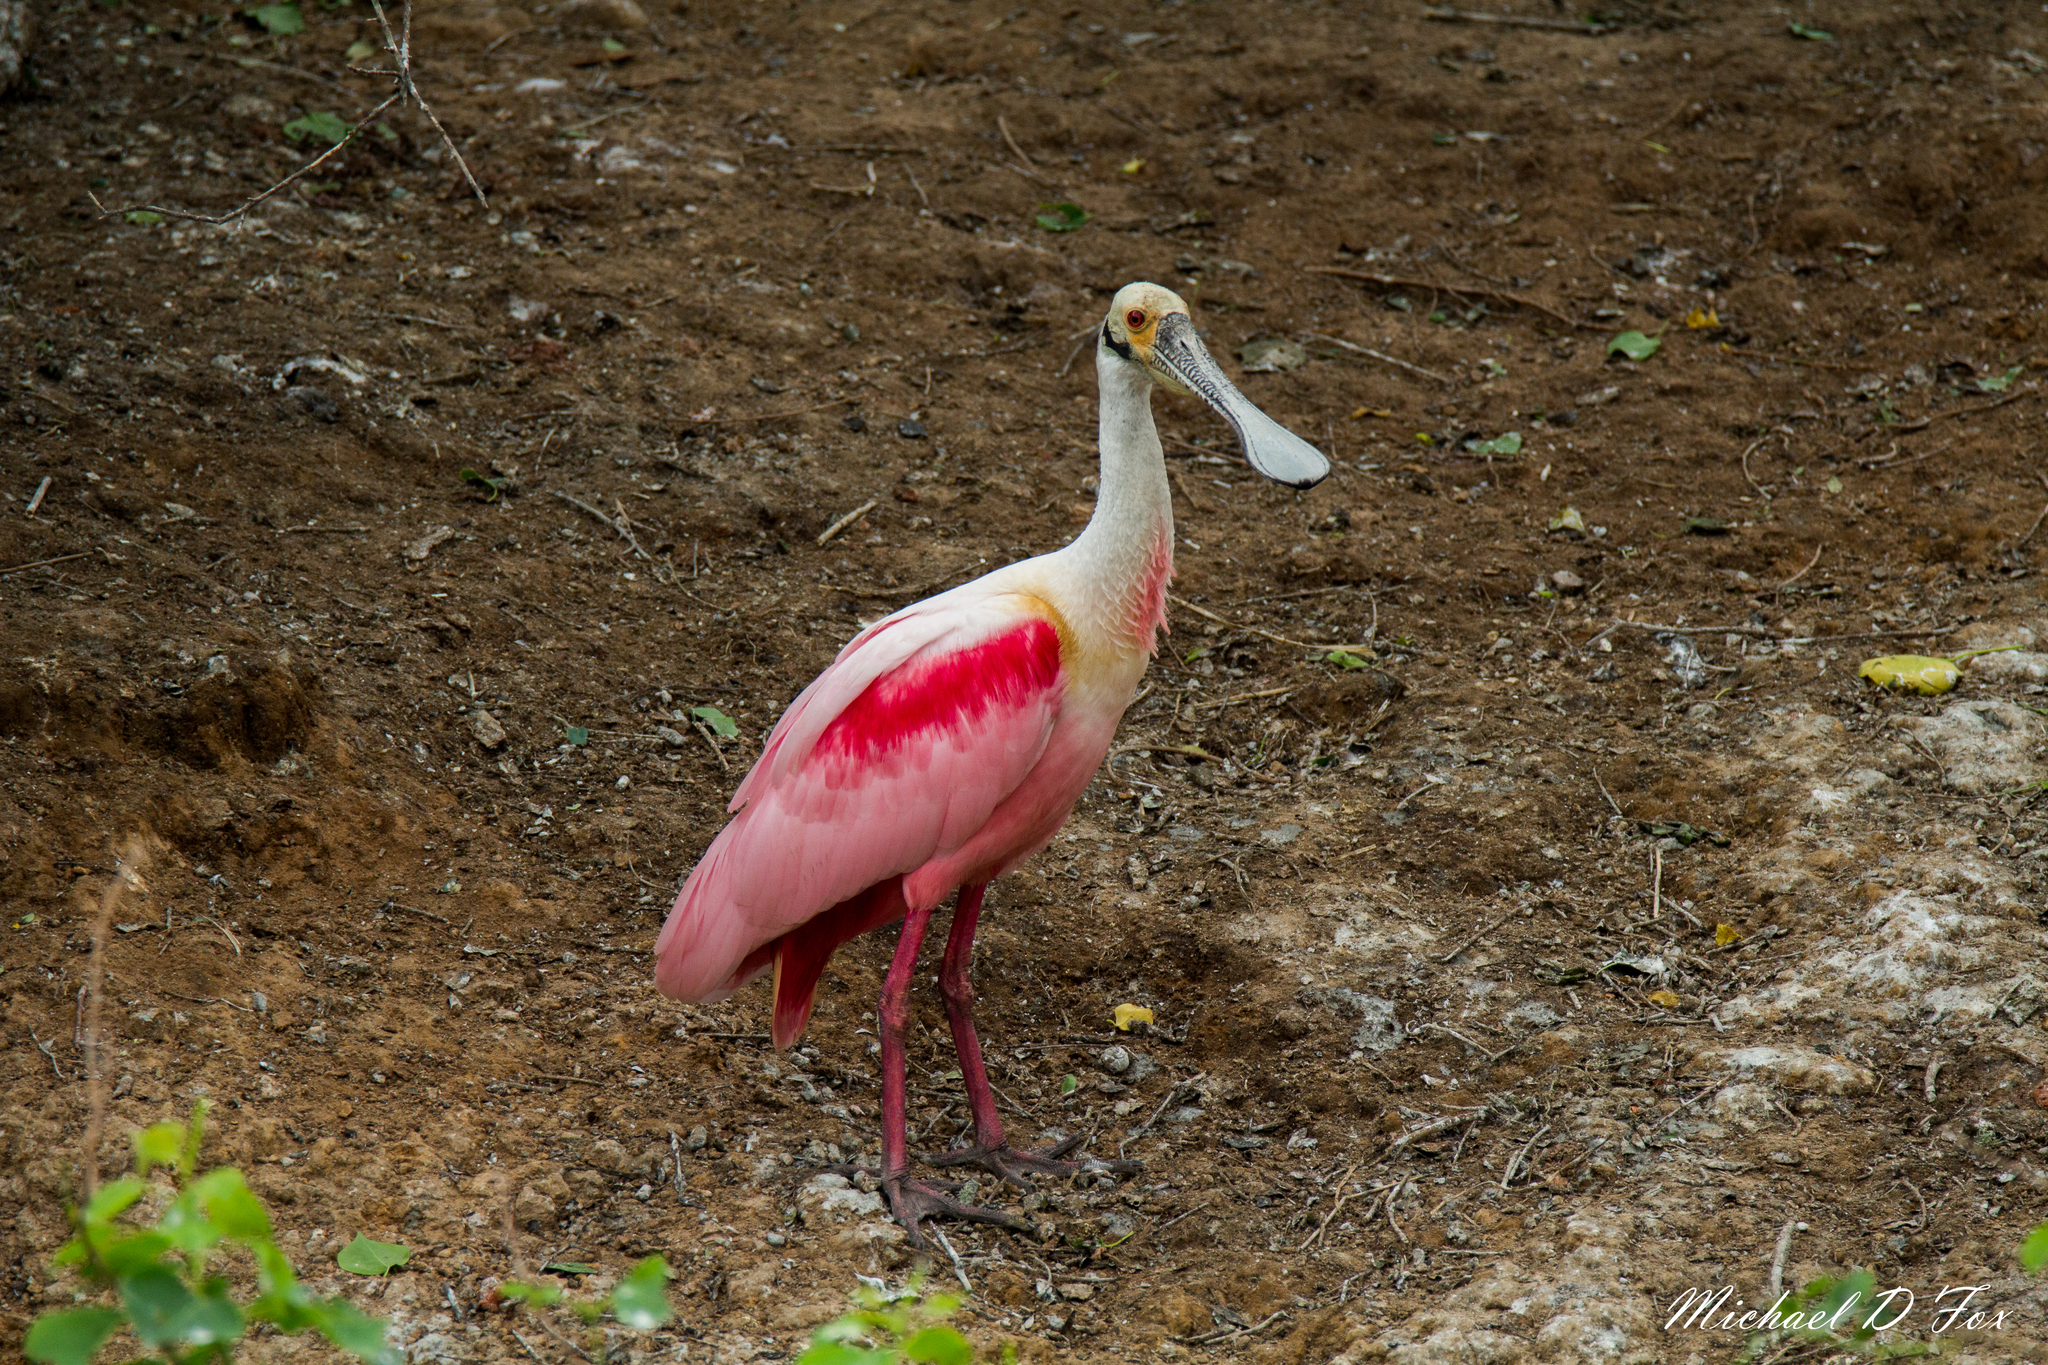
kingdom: Animalia
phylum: Chordata
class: Aves
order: Pelecaniformes
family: Threskiornithidae
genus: Platalea
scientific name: Platalea ajaja
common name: Roseate spoonbill
